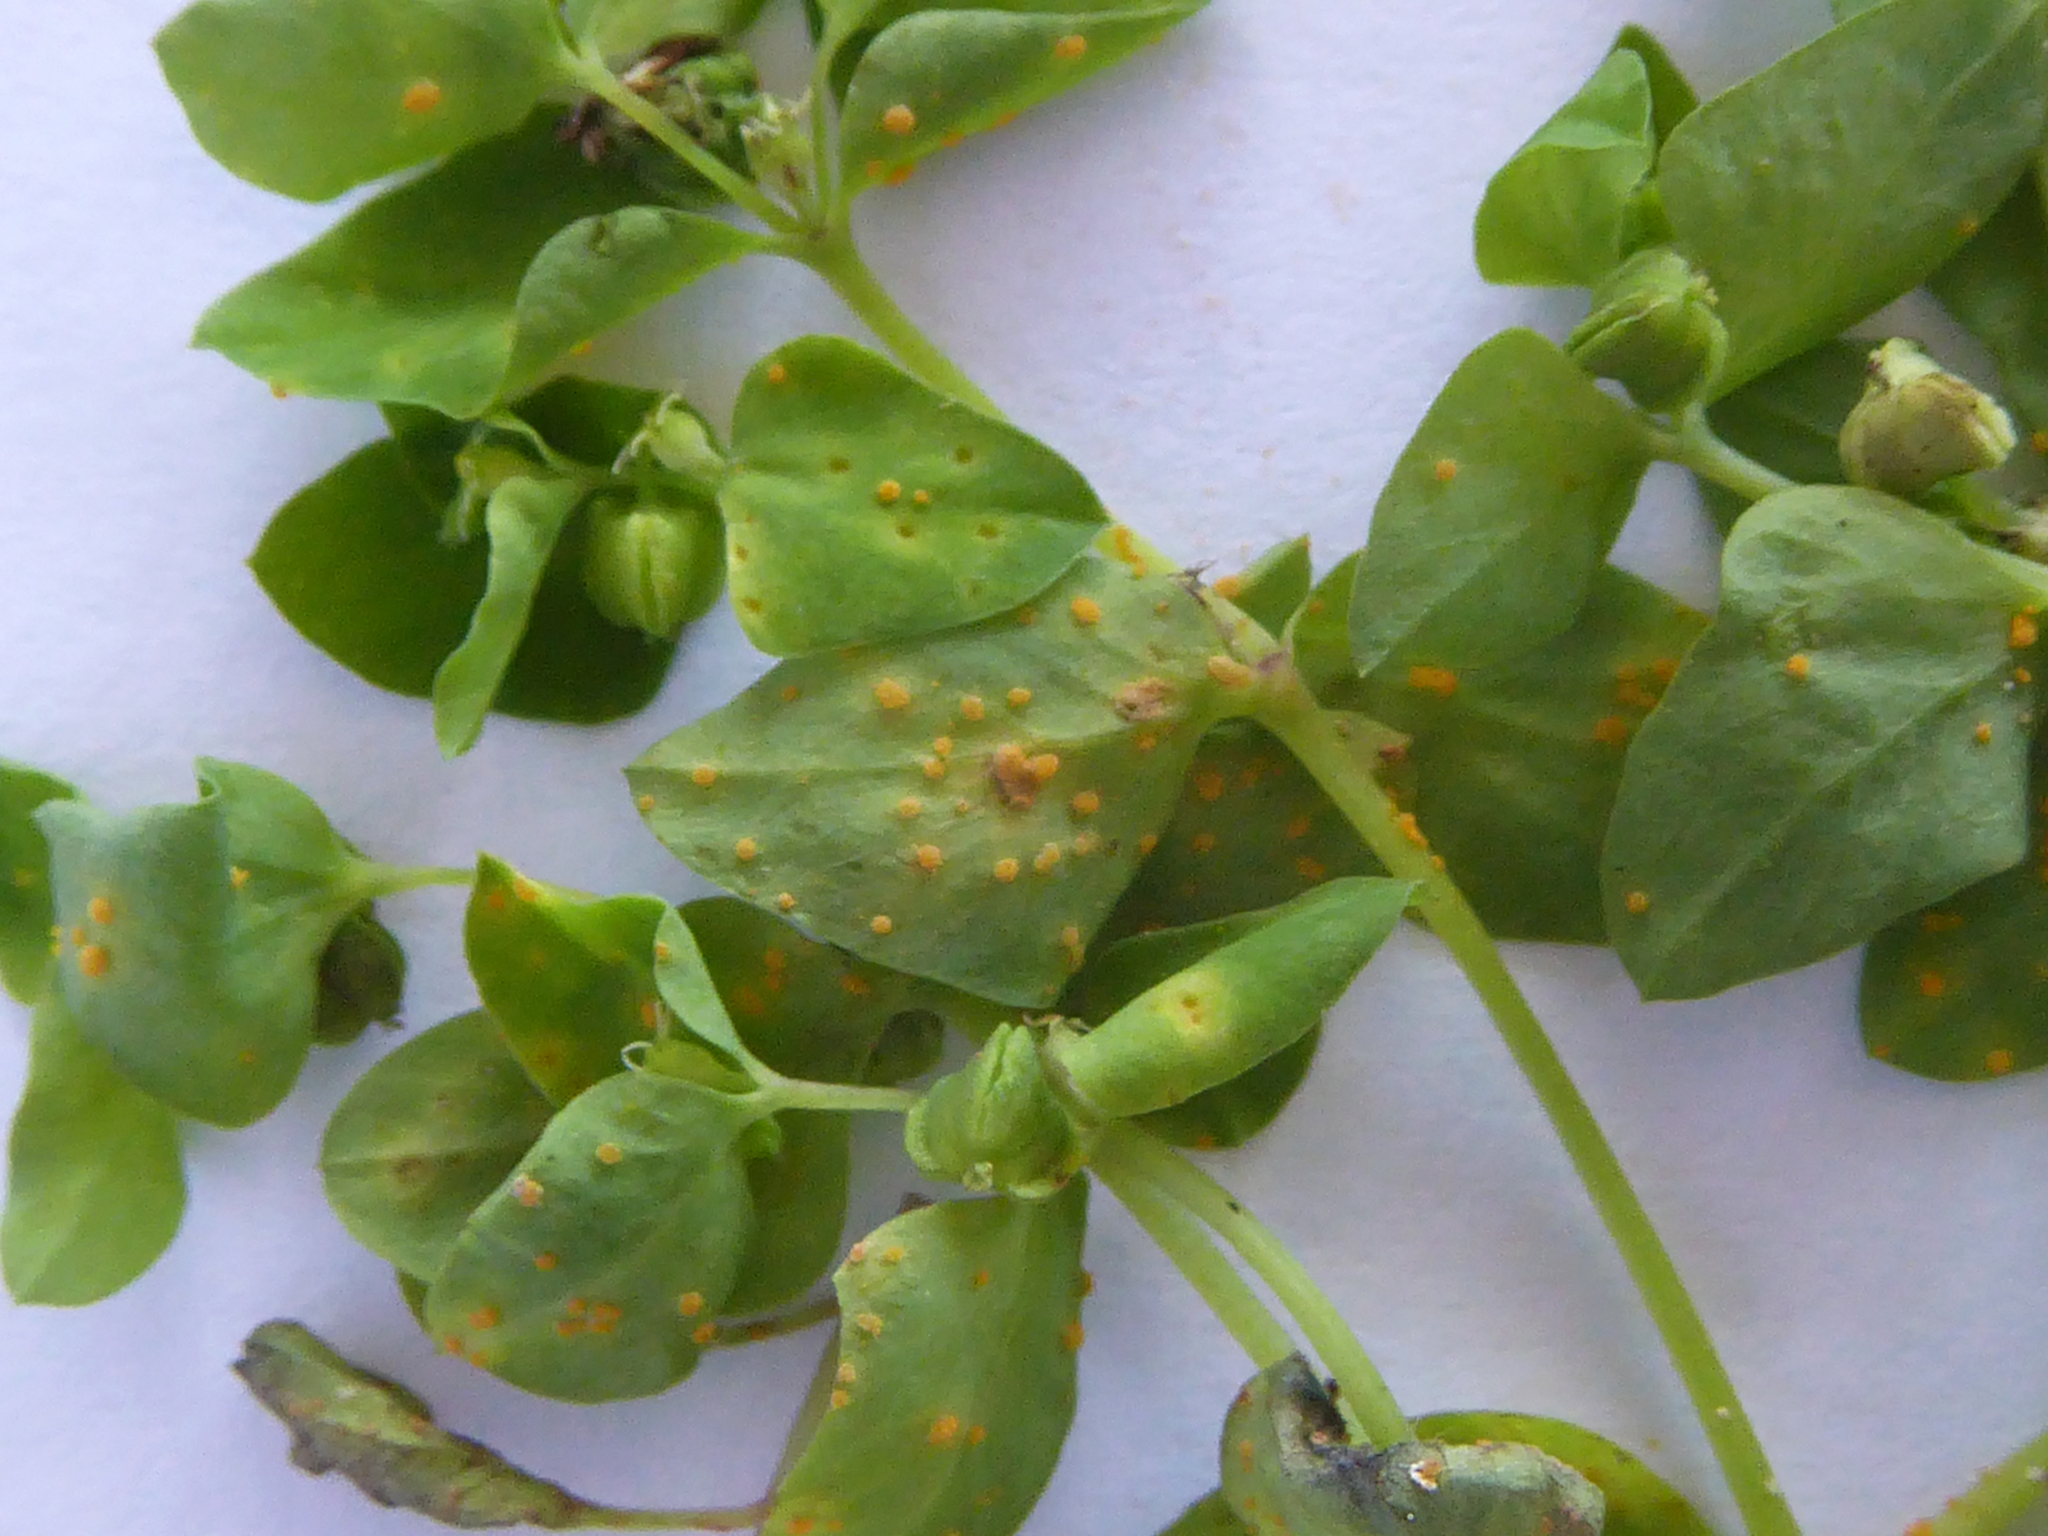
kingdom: Fungi
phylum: Basidiomycota
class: Pucciniomycetes
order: Pucciniales
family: Melampsoraceae
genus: Melampsora
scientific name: Melampsora euphorbiae
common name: Spurge rust
